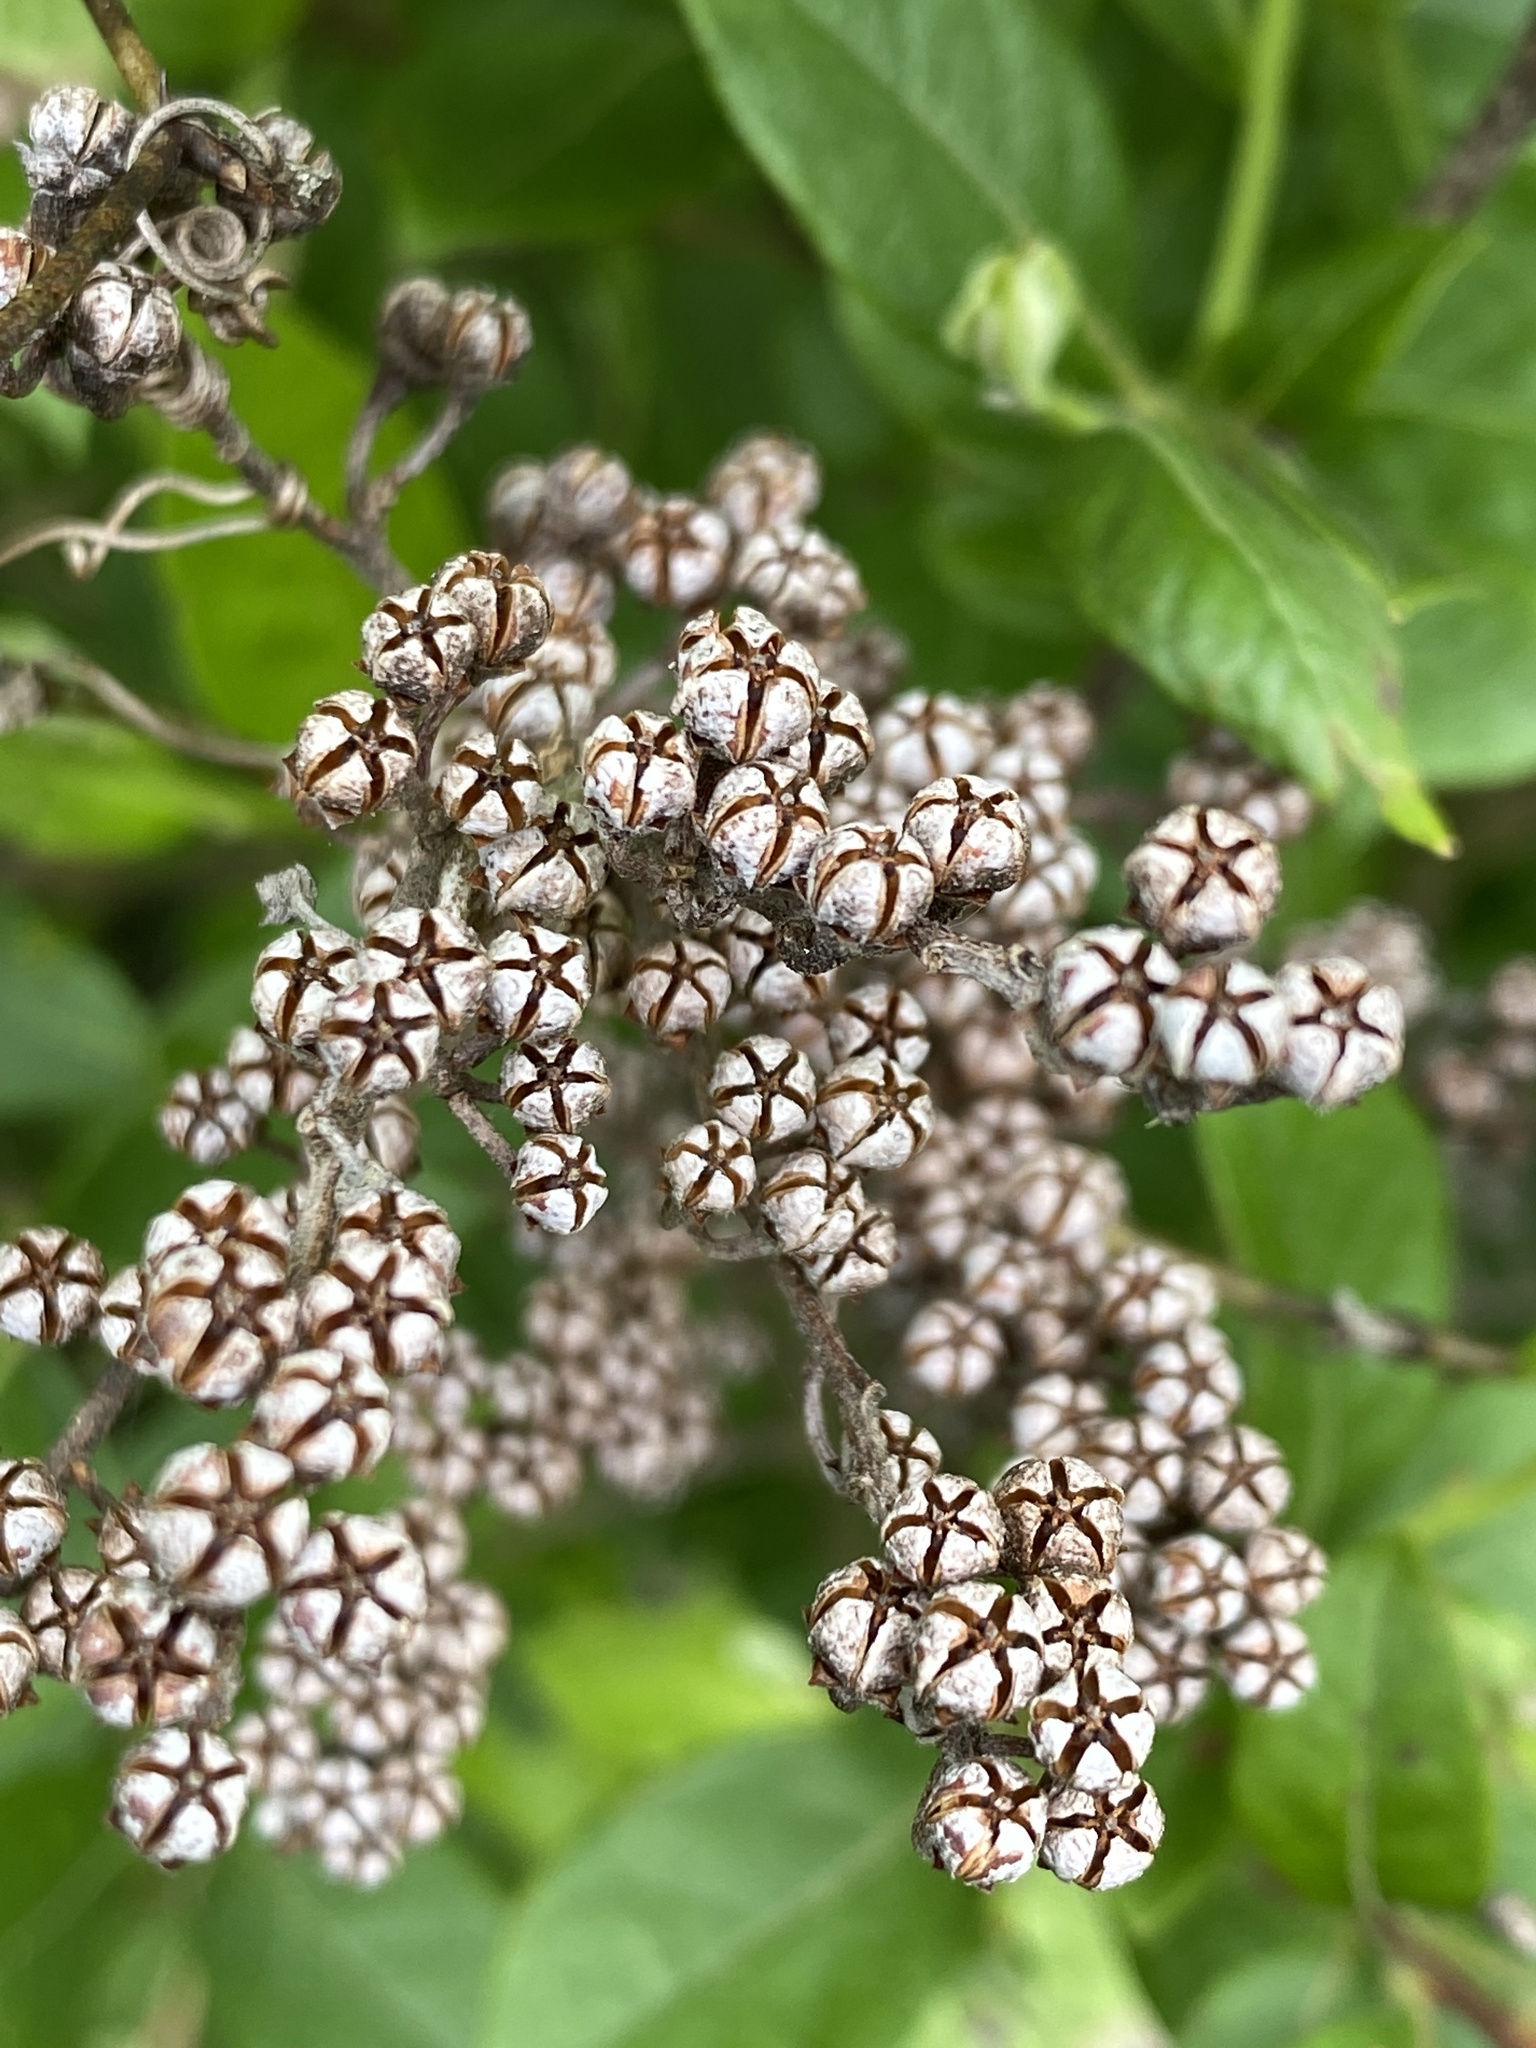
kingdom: Plantae
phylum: Tracheophyta
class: Magnoliopsida
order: Ericales
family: Ericaceae
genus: Lyonia
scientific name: Lyonia ligustrina
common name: Maleberry
